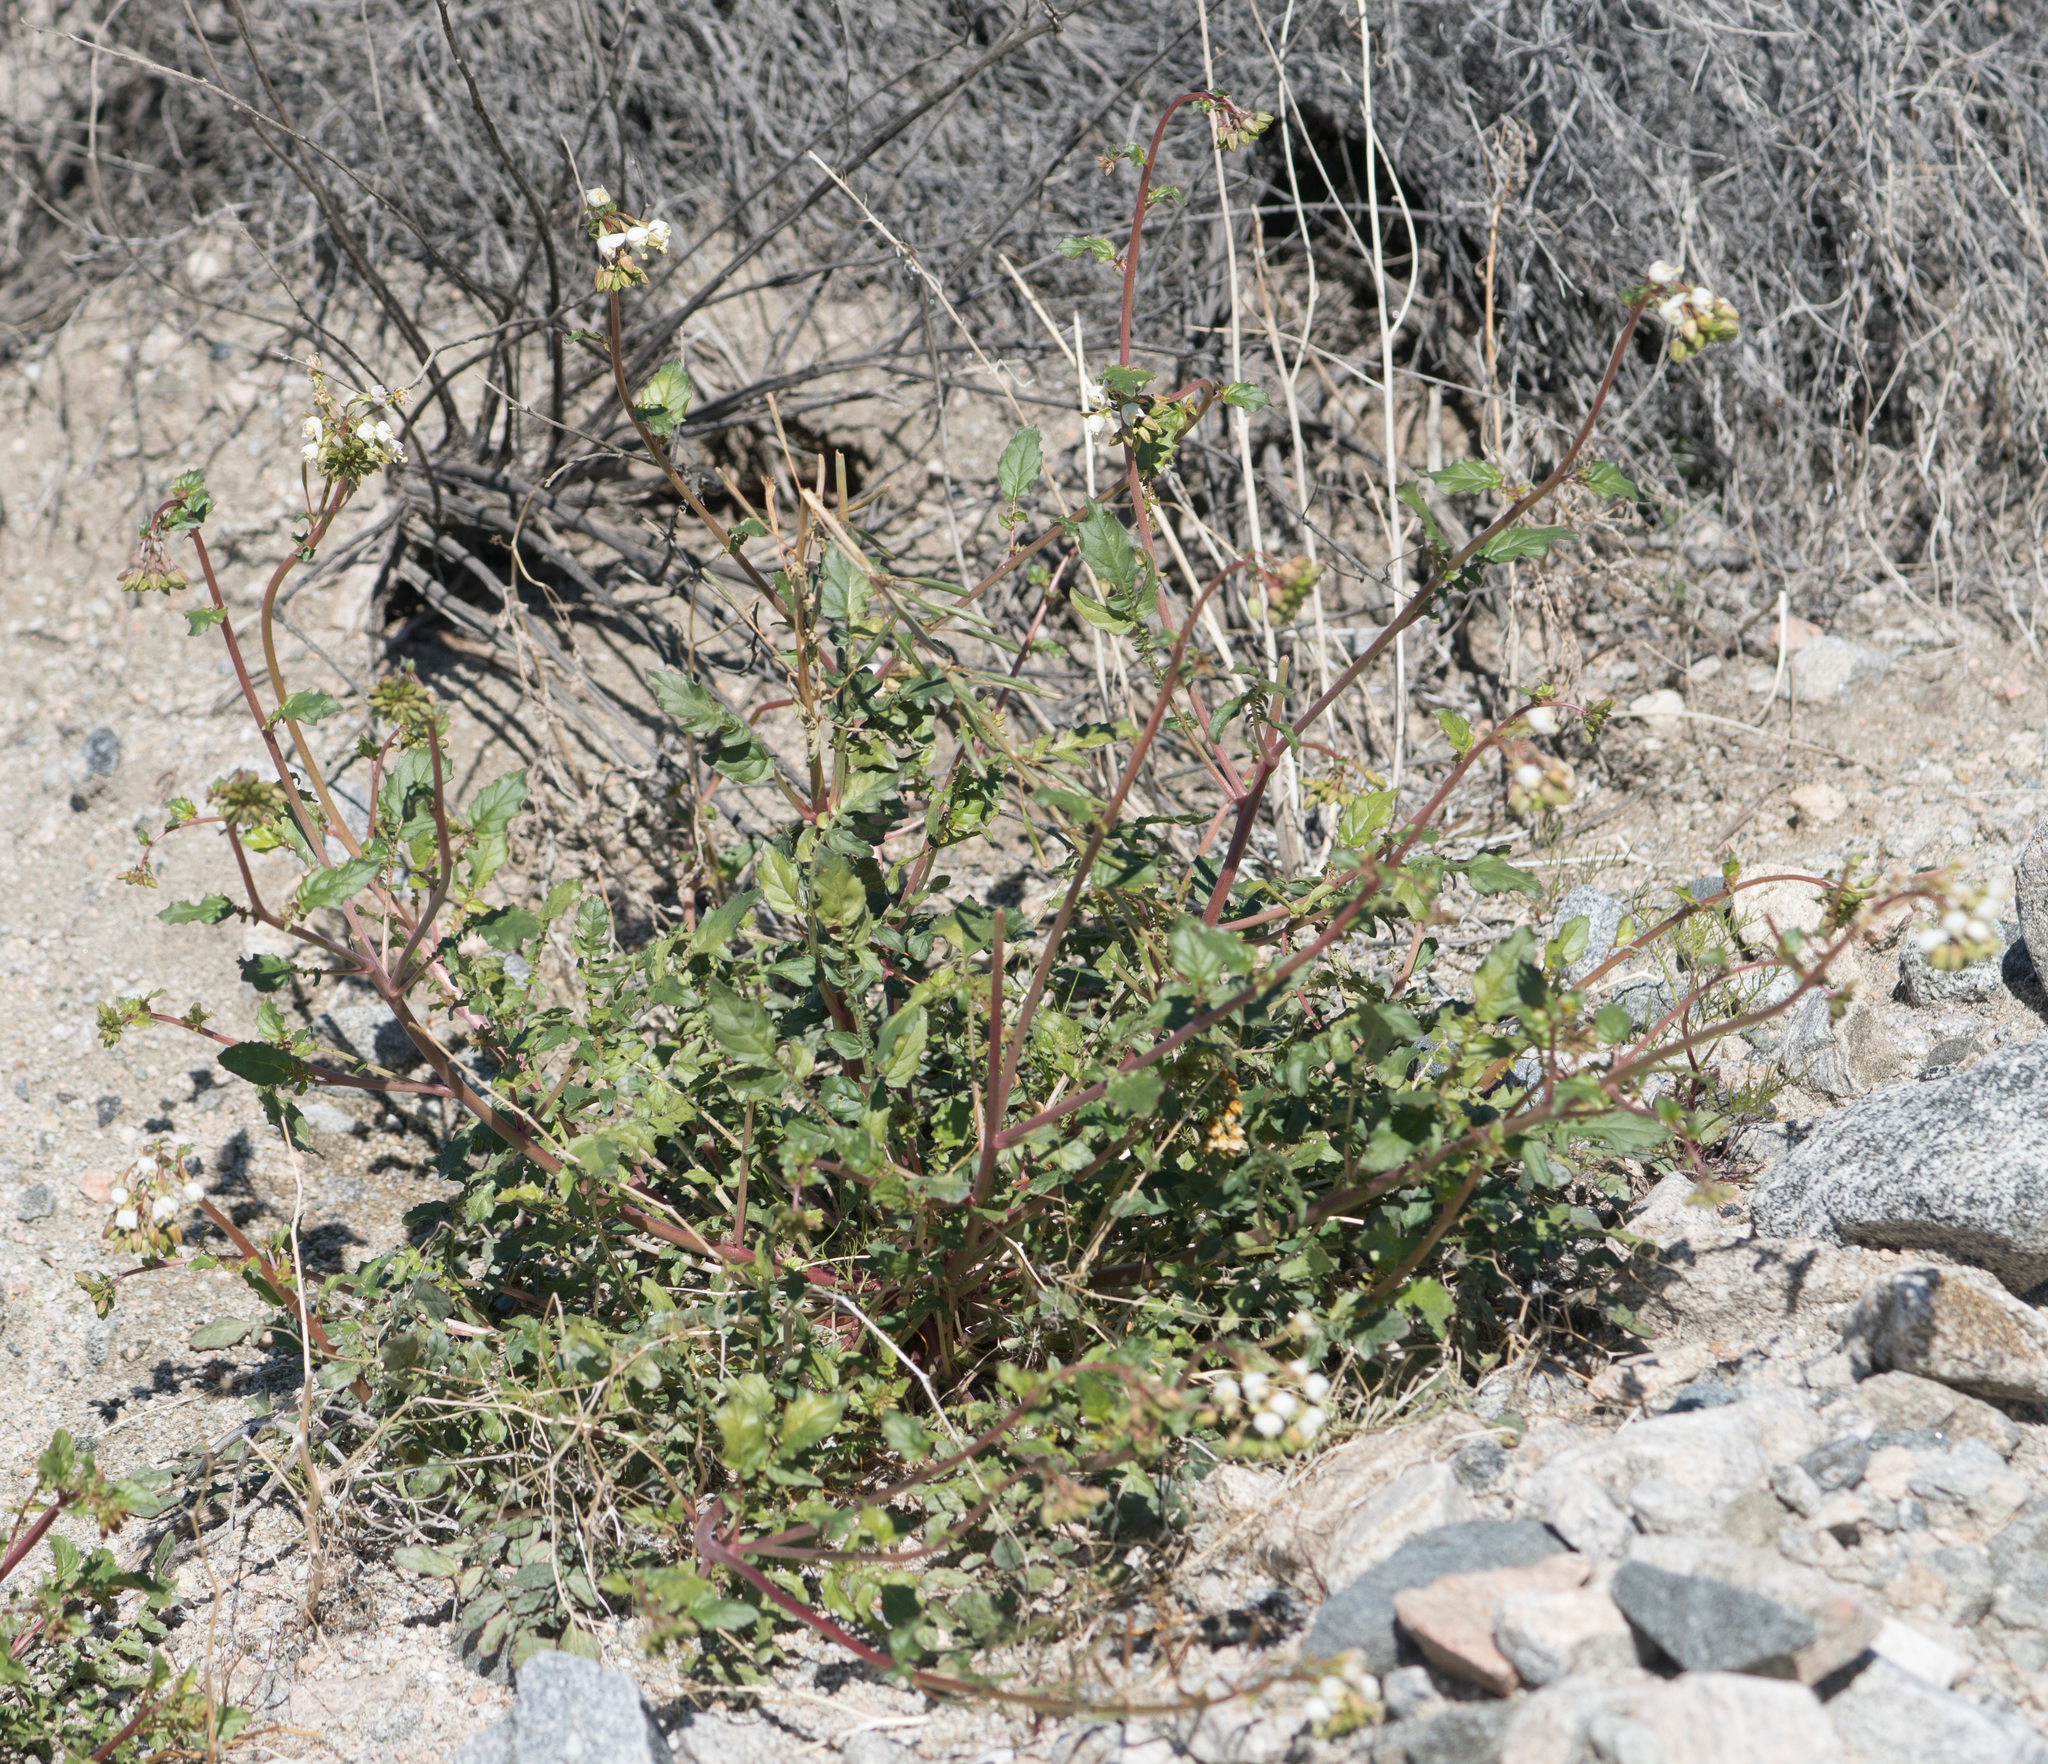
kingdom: Plantae
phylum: Tracheophyta
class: Magnoliopsida
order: Myrtales
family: Onagraceae
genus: Chylismia
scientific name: Chylismia claviformis
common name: Browneyes
